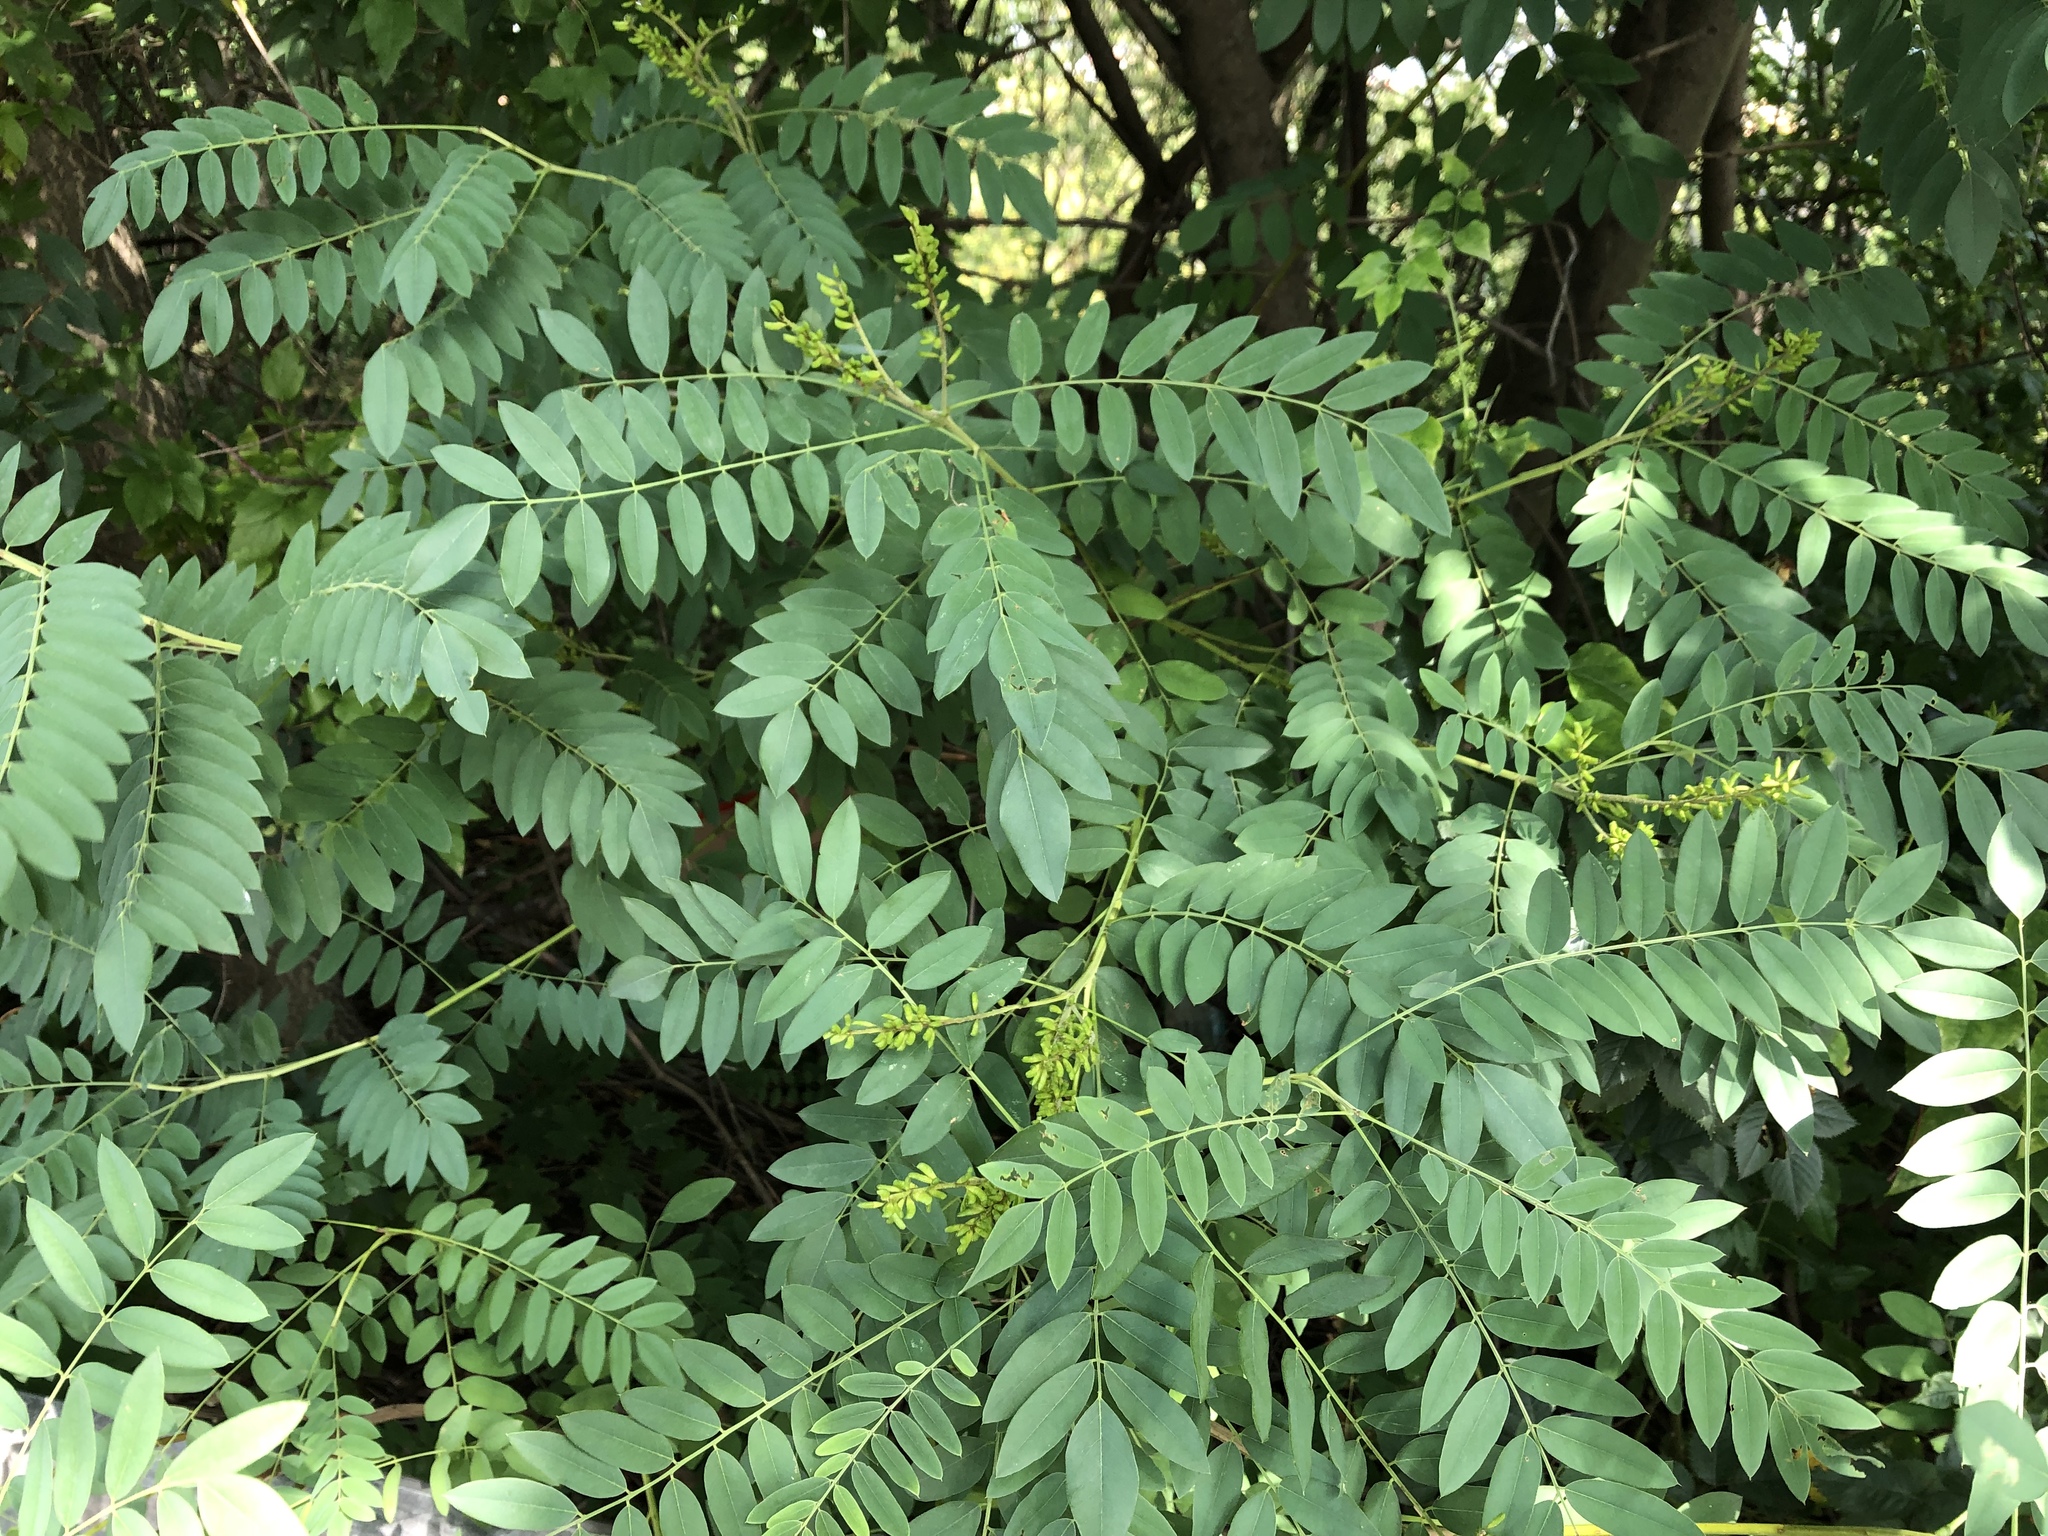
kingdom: Plantae
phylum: Tracheophyta
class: Magnoliopsida
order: Fabales
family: Fabaceae
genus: Amorpha
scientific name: Amorpha fruticosa
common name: False indigo
